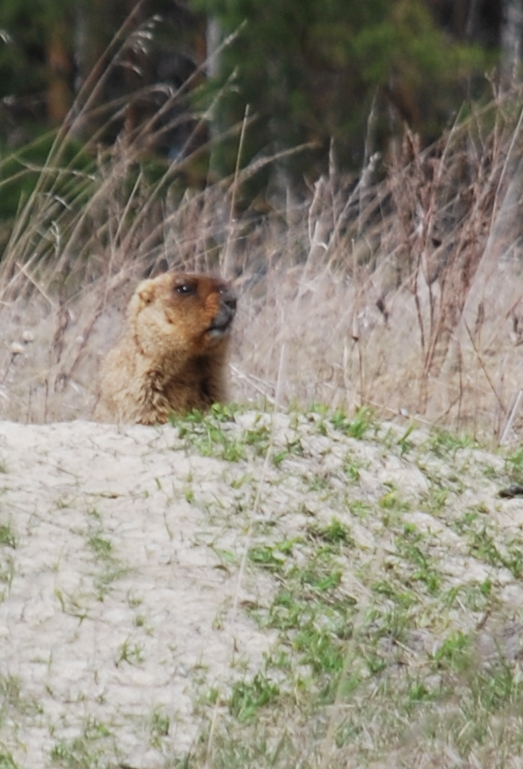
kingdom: Animalia
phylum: Chordata
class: Mammalia
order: Rodentia
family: Sciuridae
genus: Marmota
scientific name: Marmota bobak
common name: Bobak marmot
